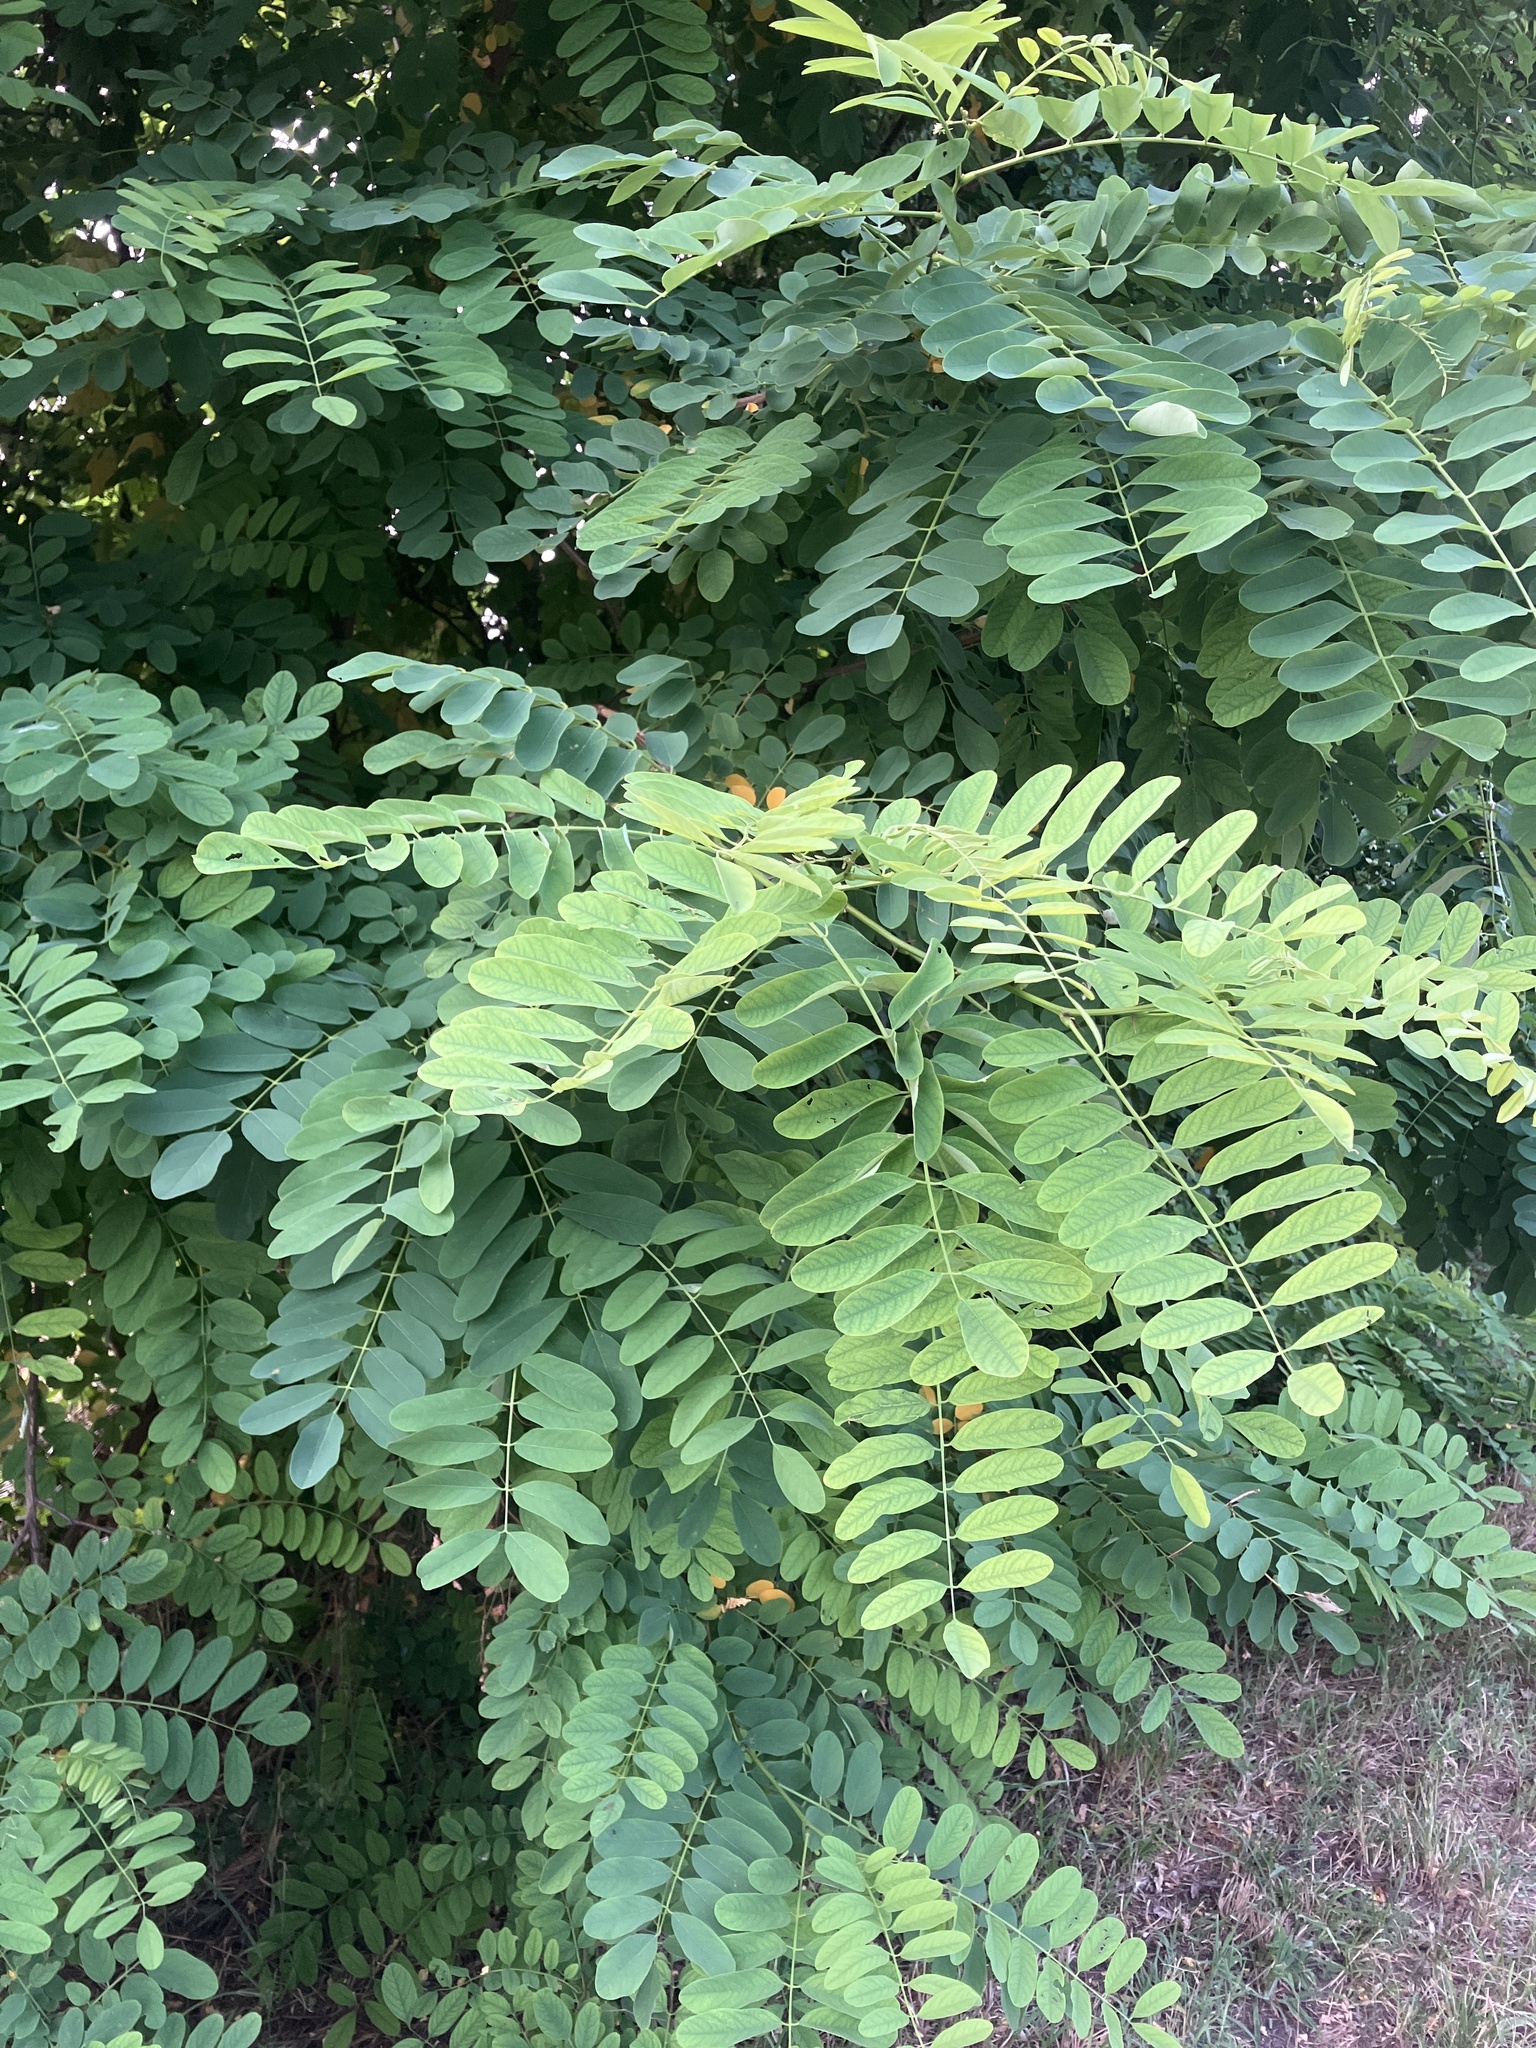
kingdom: Plantae
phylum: Tracheophyta
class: Magnoliopsida
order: Fabales
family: Fabaceae
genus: Robinia
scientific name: Robinia pseudoacacia
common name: Black locust
